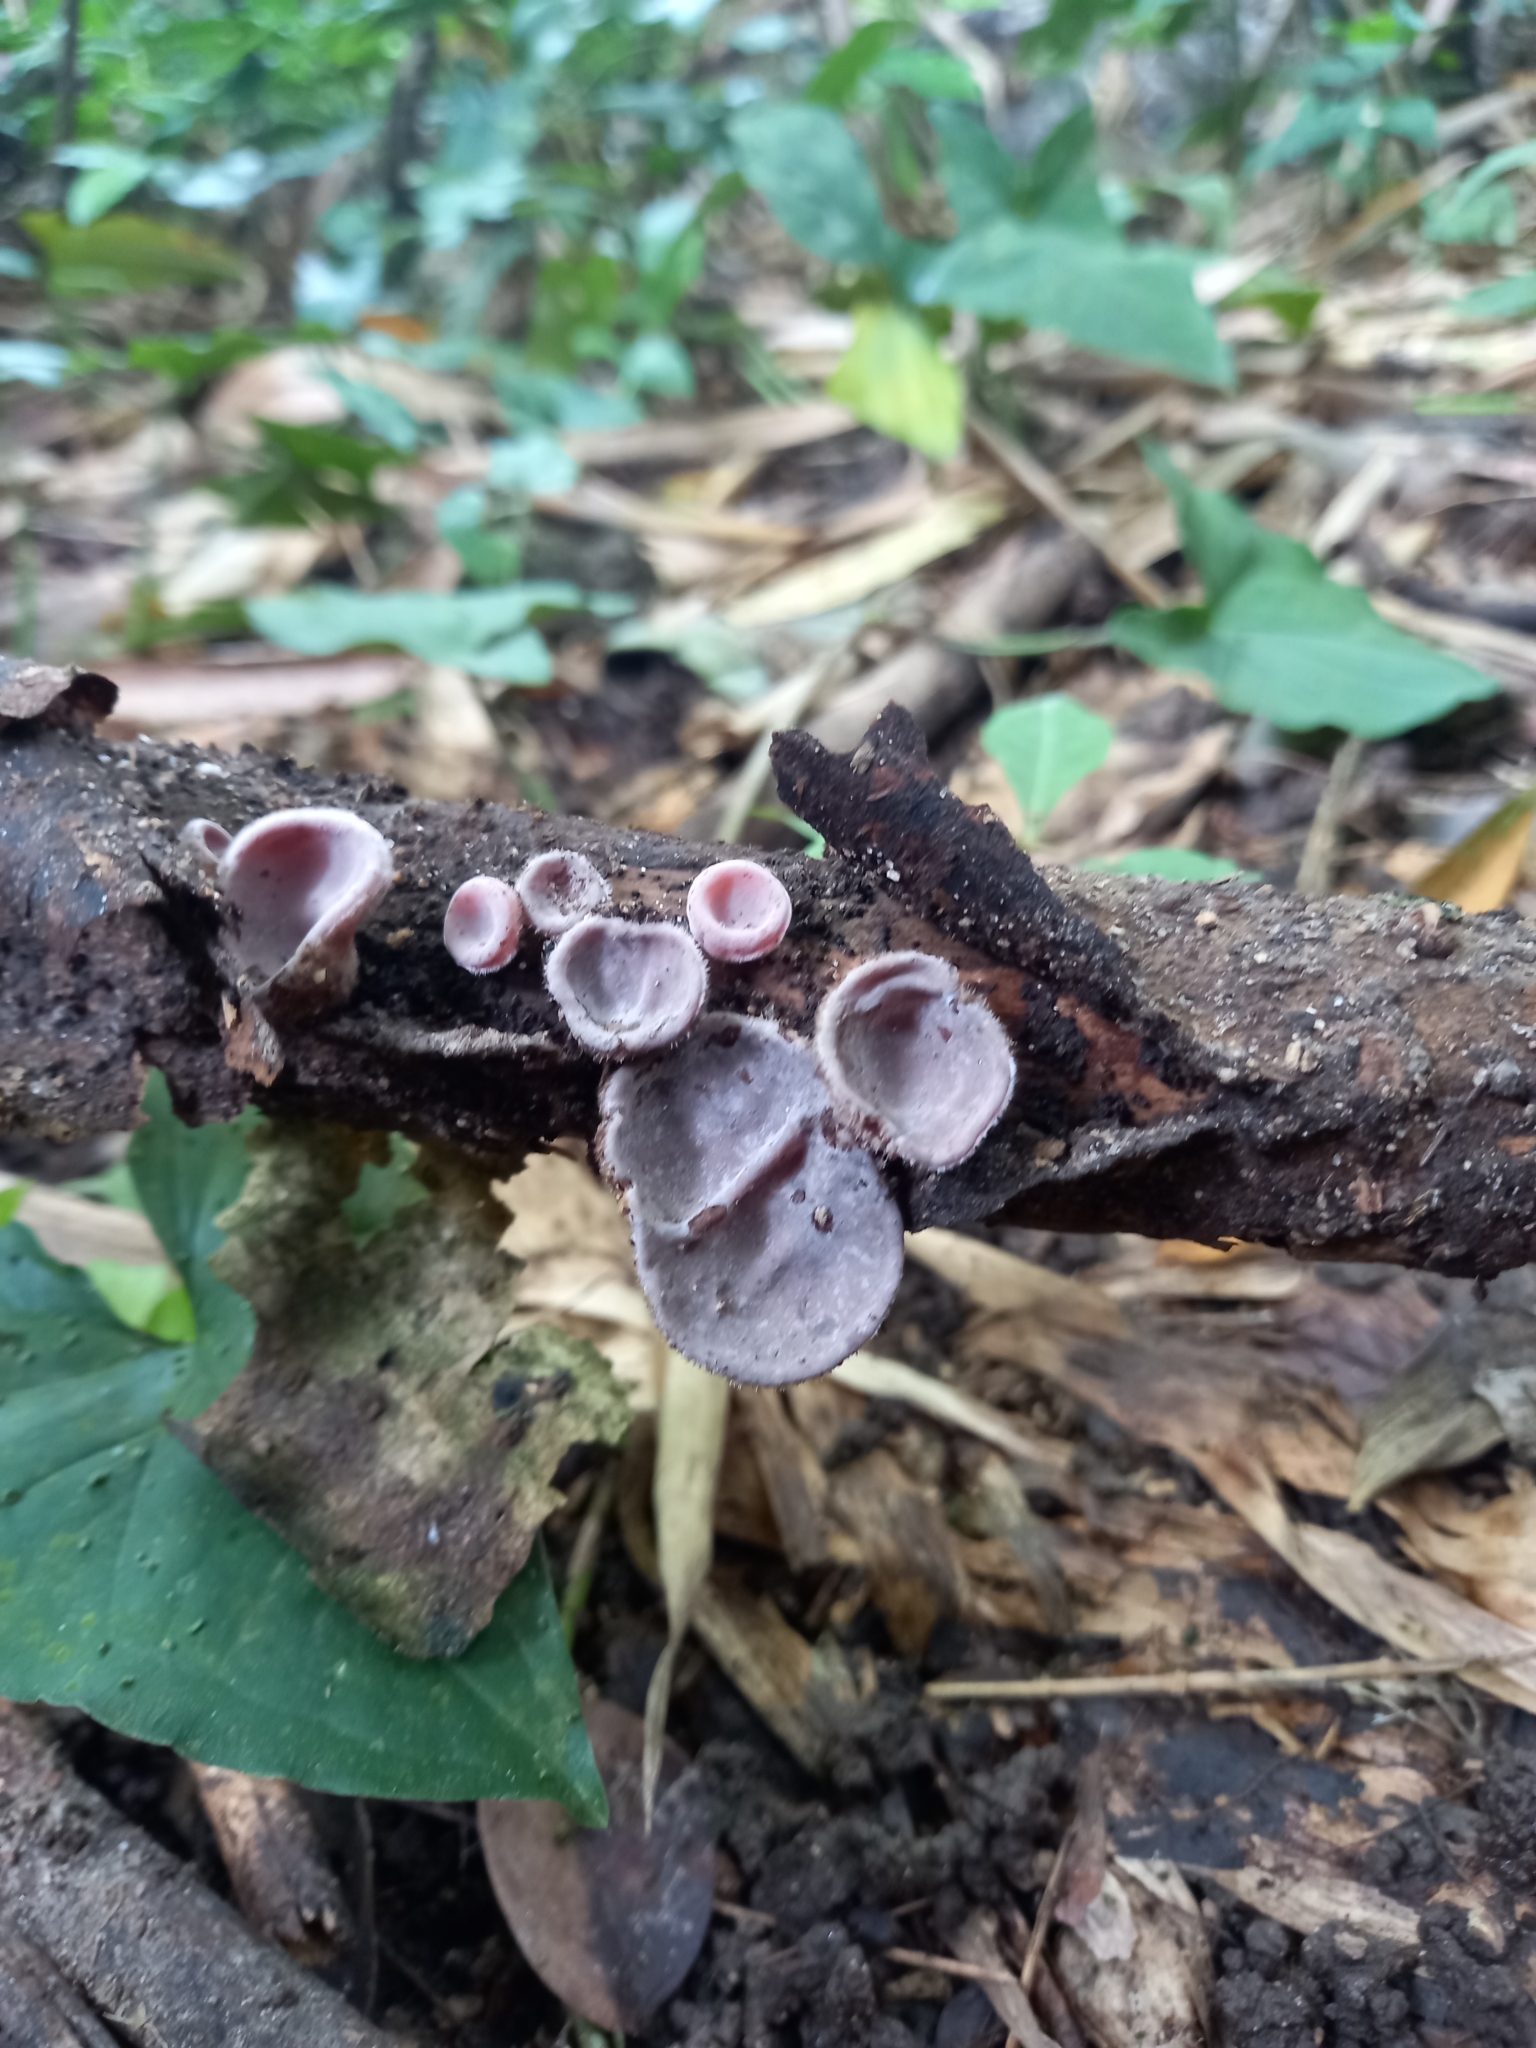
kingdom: Fungi
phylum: Basidiomycota
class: Agaricomycetes
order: Auriculariales
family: Auriculariaceae
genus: Auricularia
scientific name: Auricularia nigricans
